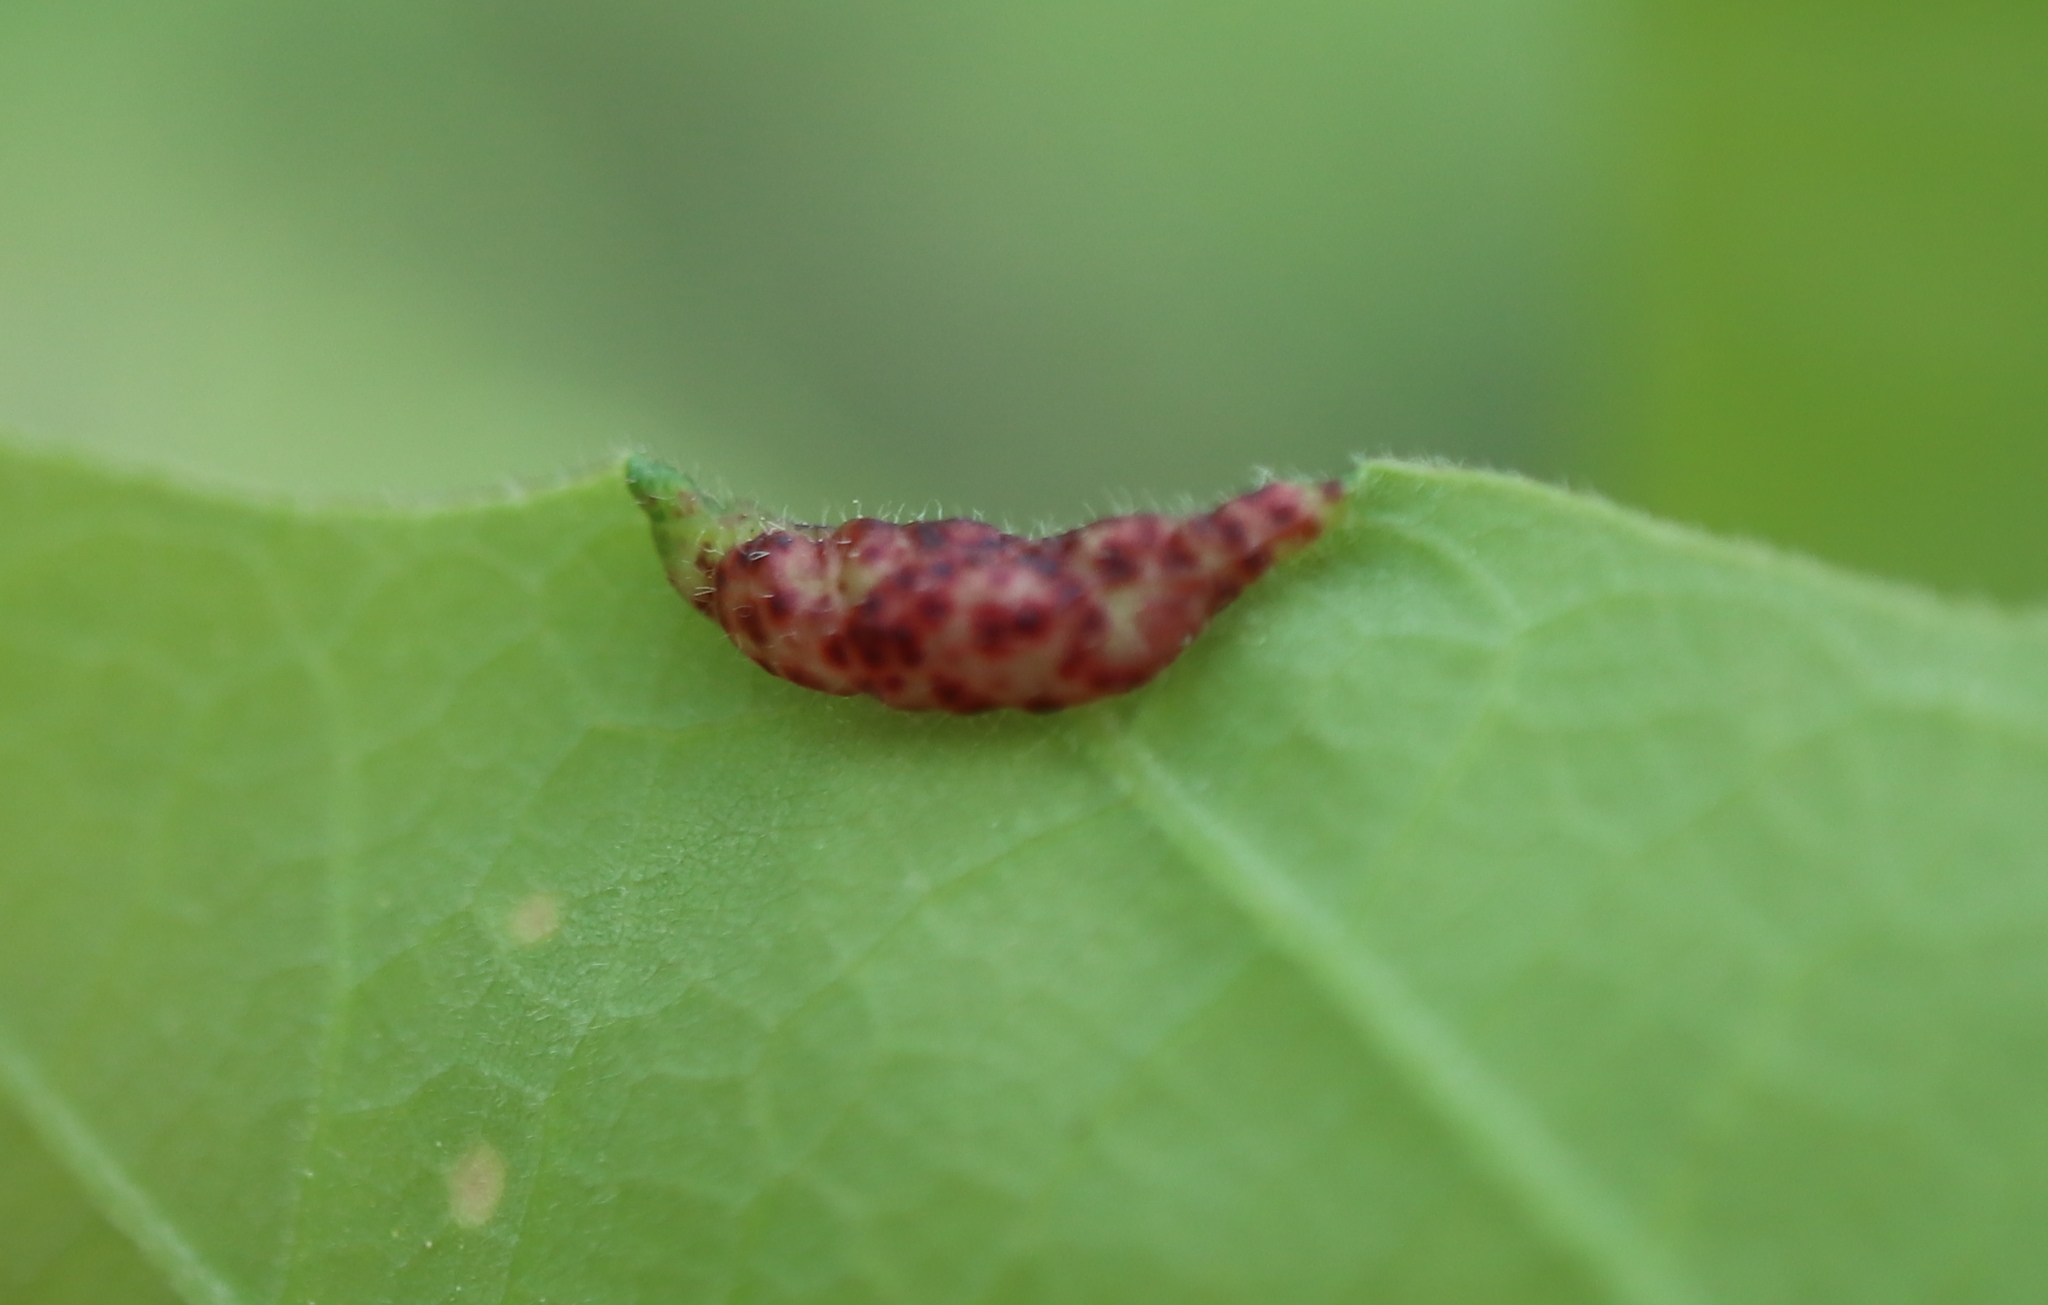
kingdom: Animalia
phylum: Arthropoda
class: Insecta
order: Diptera
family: Cecidomyiidae
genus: Macrodiplosis
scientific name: Macrodiplosis erubescens
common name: Marginal leaf fold gall midge
